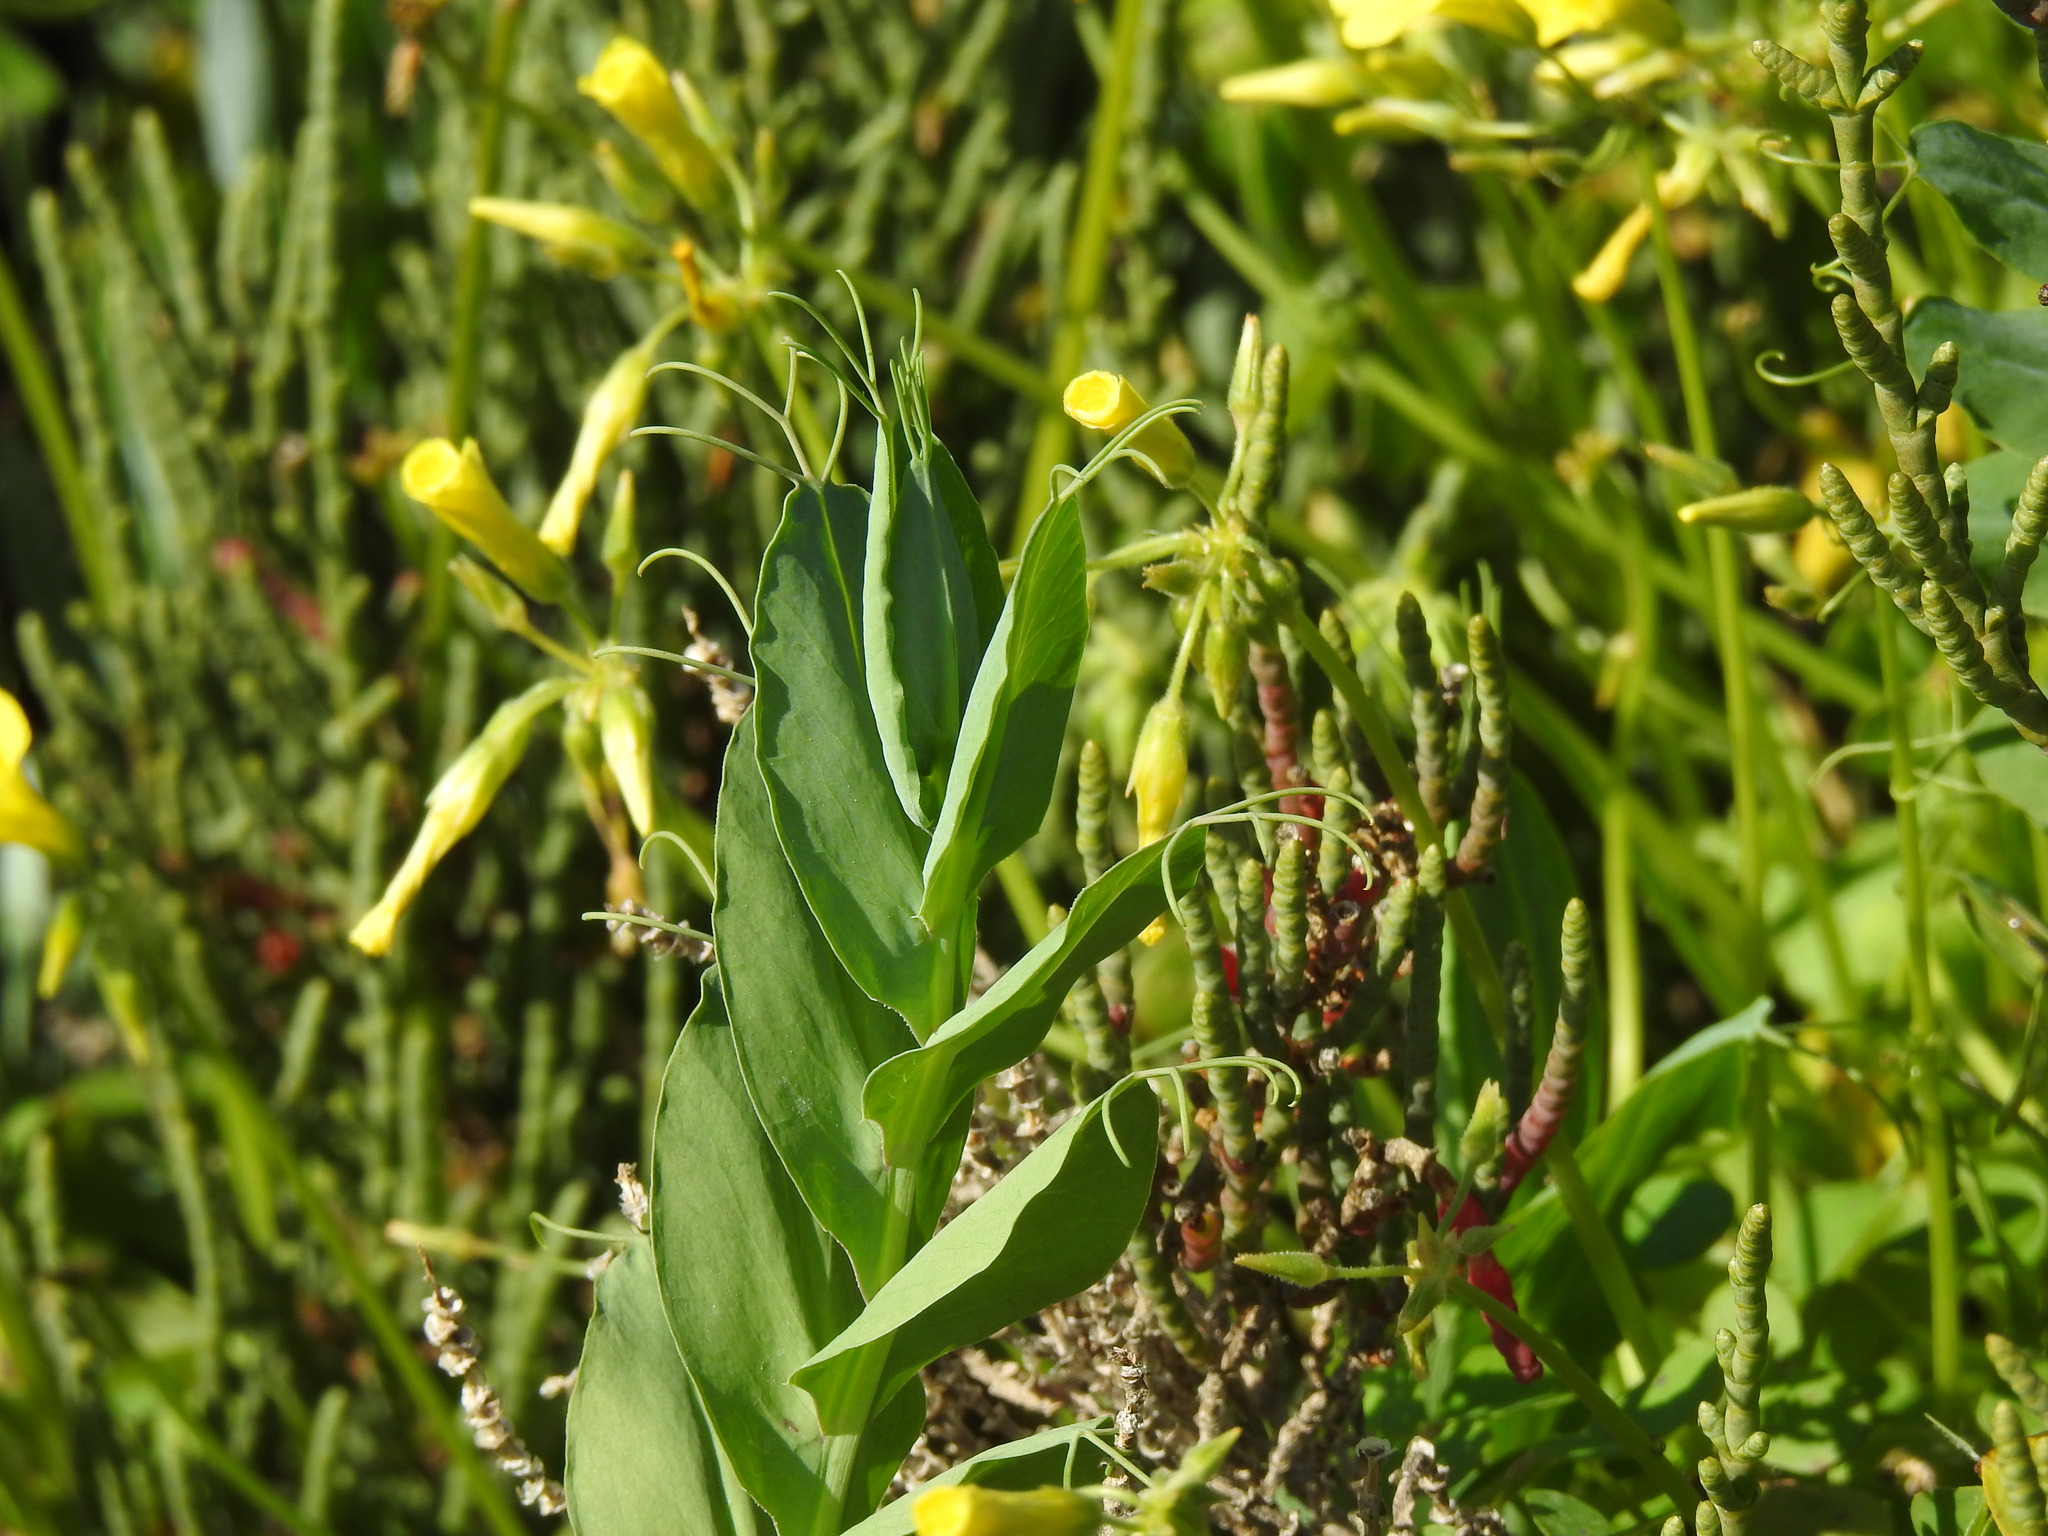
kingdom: Plantae
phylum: Tracheophyta
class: Magnoliopsida
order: Fabales
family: Fabaceae
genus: Lathyrus
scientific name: Lathyrus ochrus
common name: Winged vetchling
